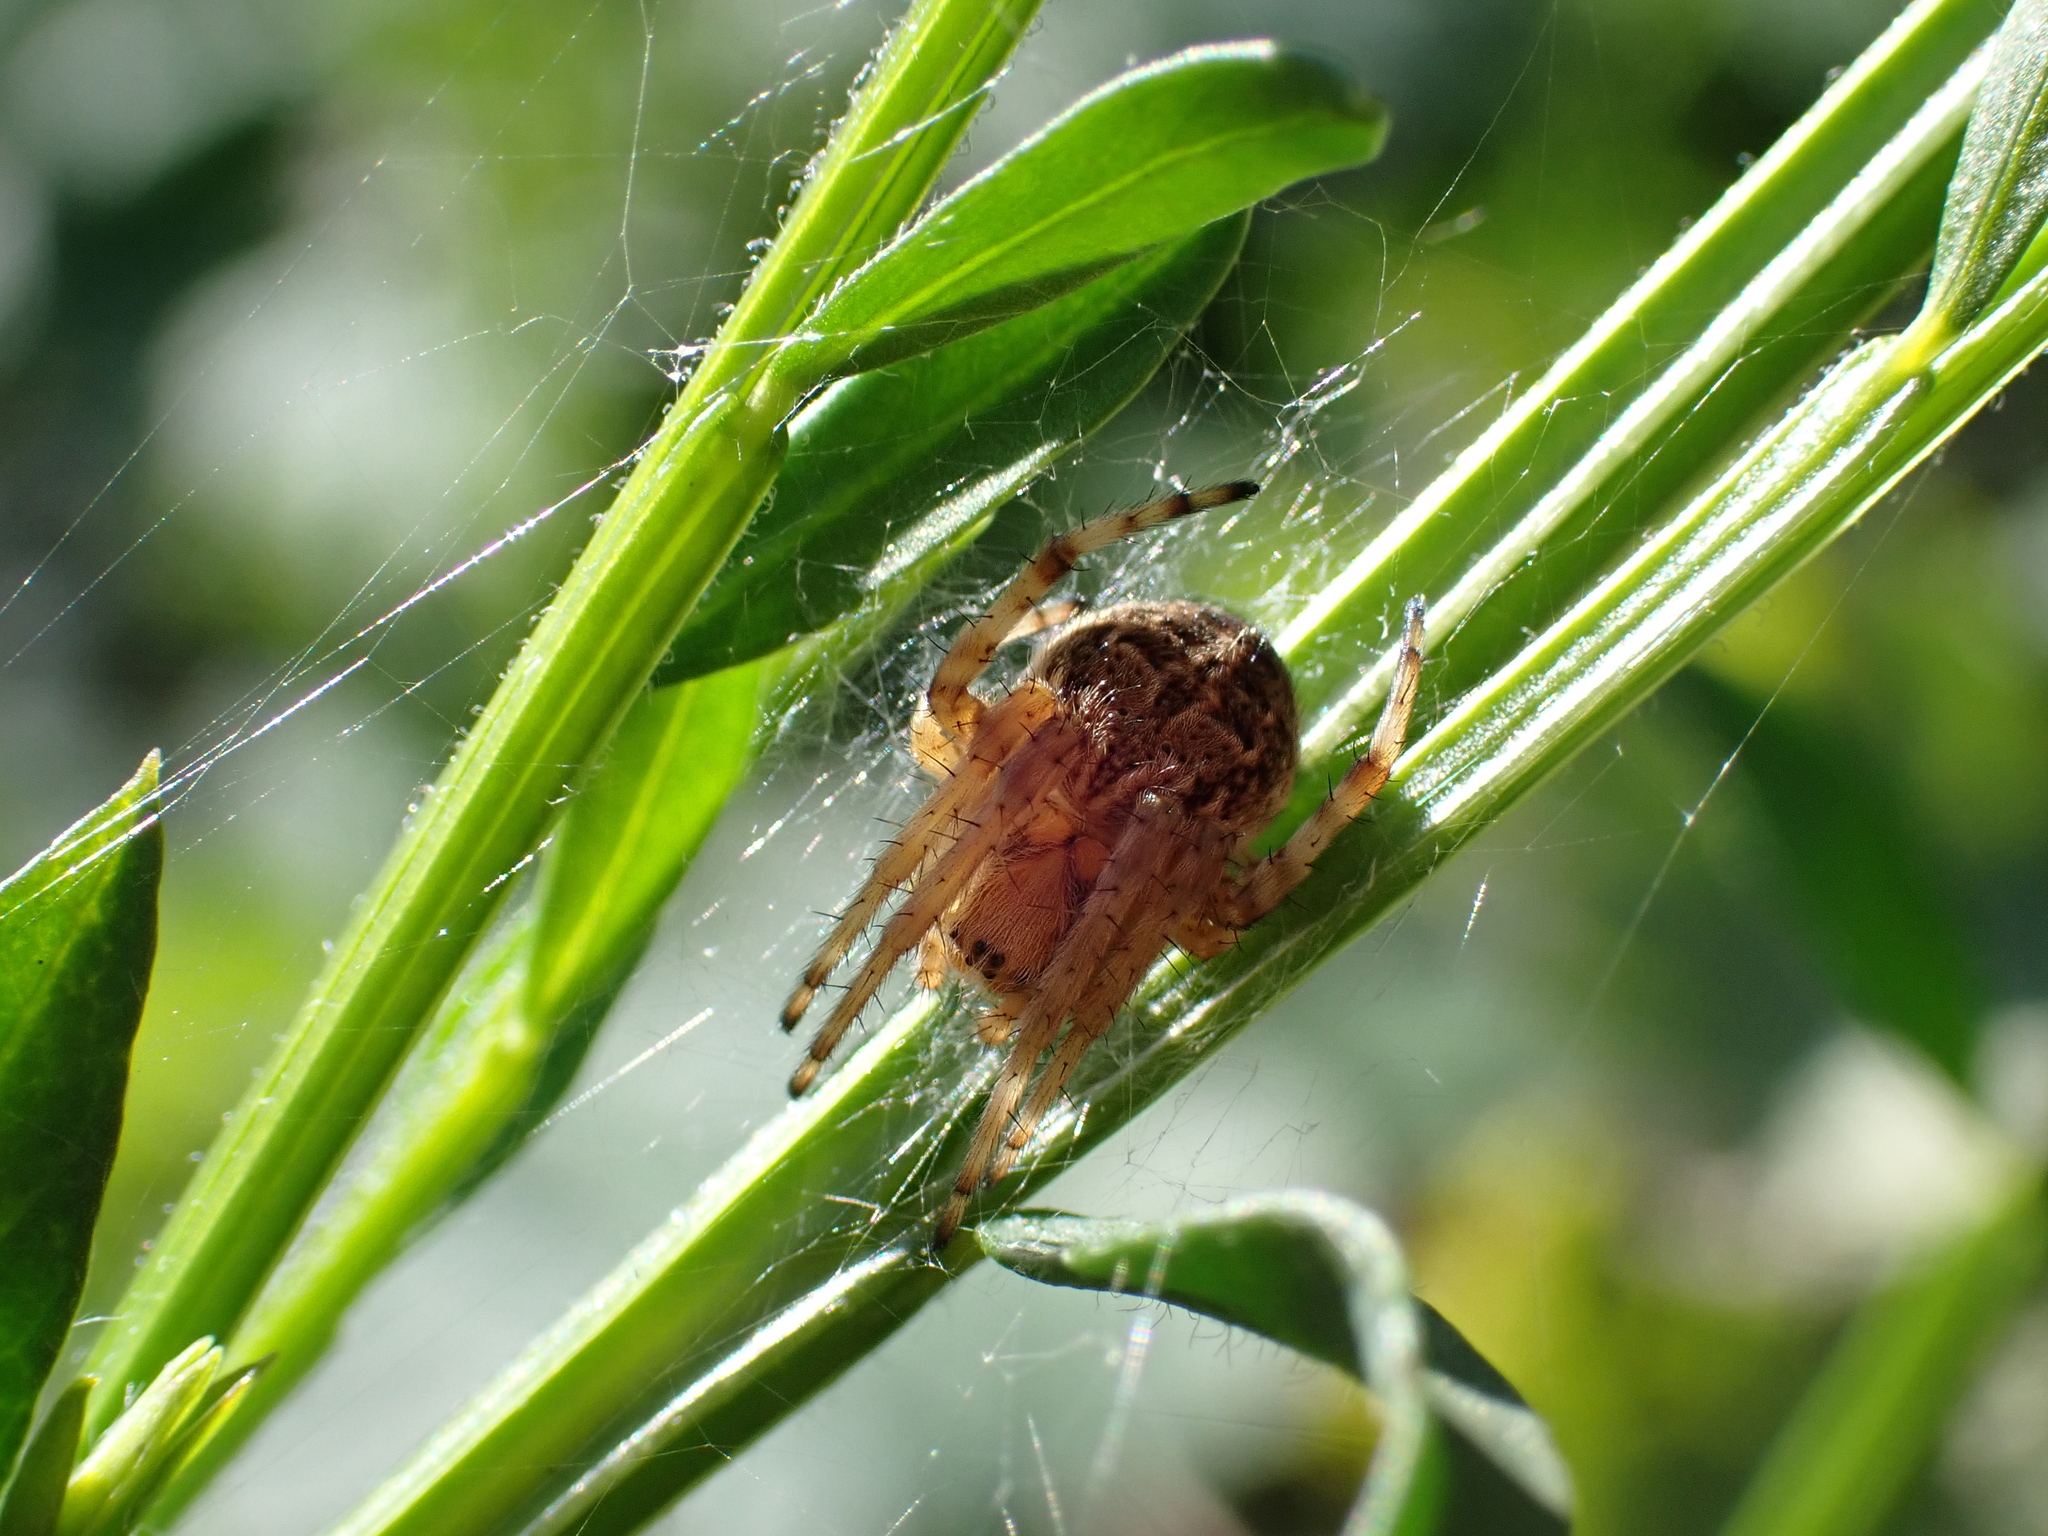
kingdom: Animalia
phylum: Arthropoda
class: Arachnida
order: Araneae
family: Araneidae
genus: Agalenatea
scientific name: Agalenatea redii
